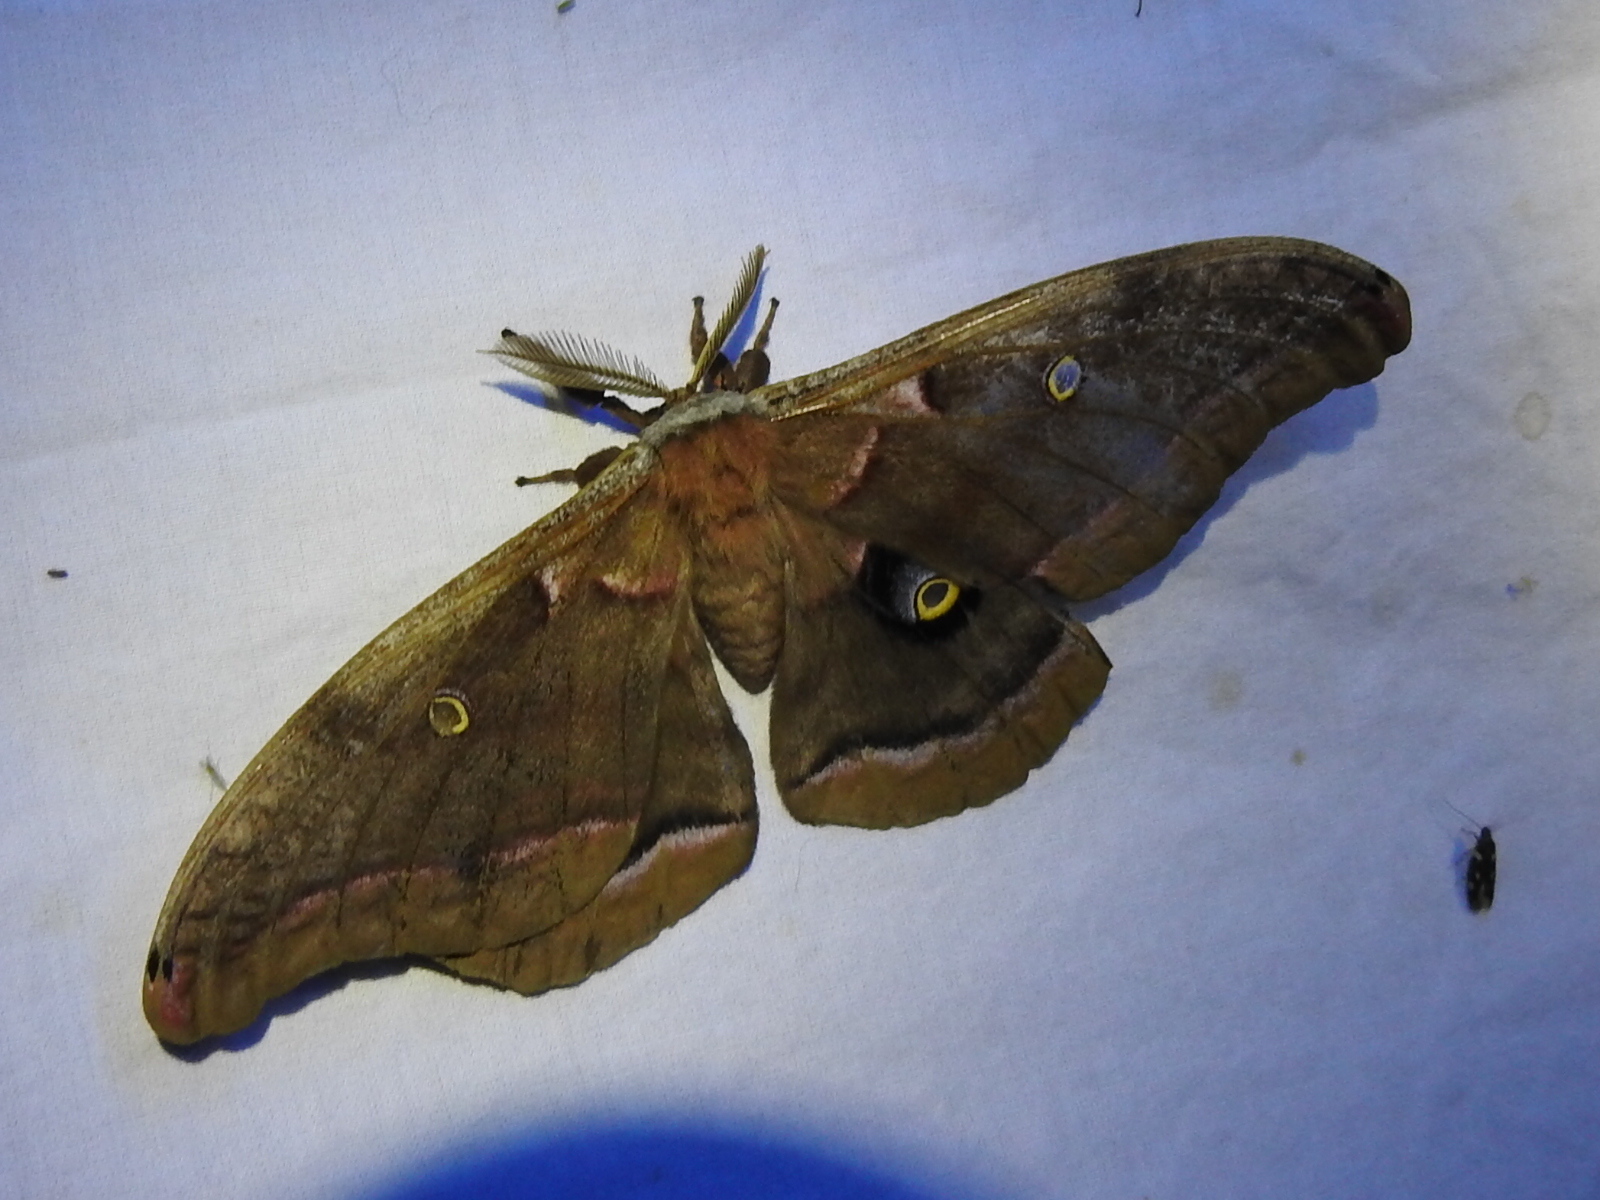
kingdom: Animalia
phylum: Arthropoda
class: Insecta
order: Lepidoptera
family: Saturniidae
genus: Antheraea
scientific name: Antheraea polyphemus
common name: Polyphemus moth
